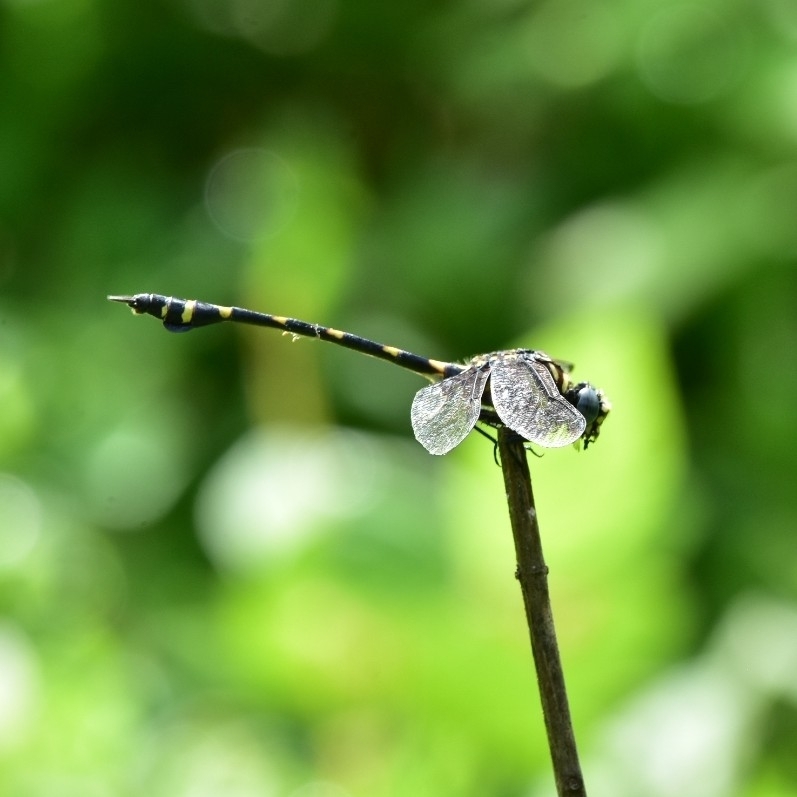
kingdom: Animalia
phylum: Arthropoda
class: Insecta
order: Odonata
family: Gomphidae
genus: Ictinogomphus
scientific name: Ictinogomphus rapax
